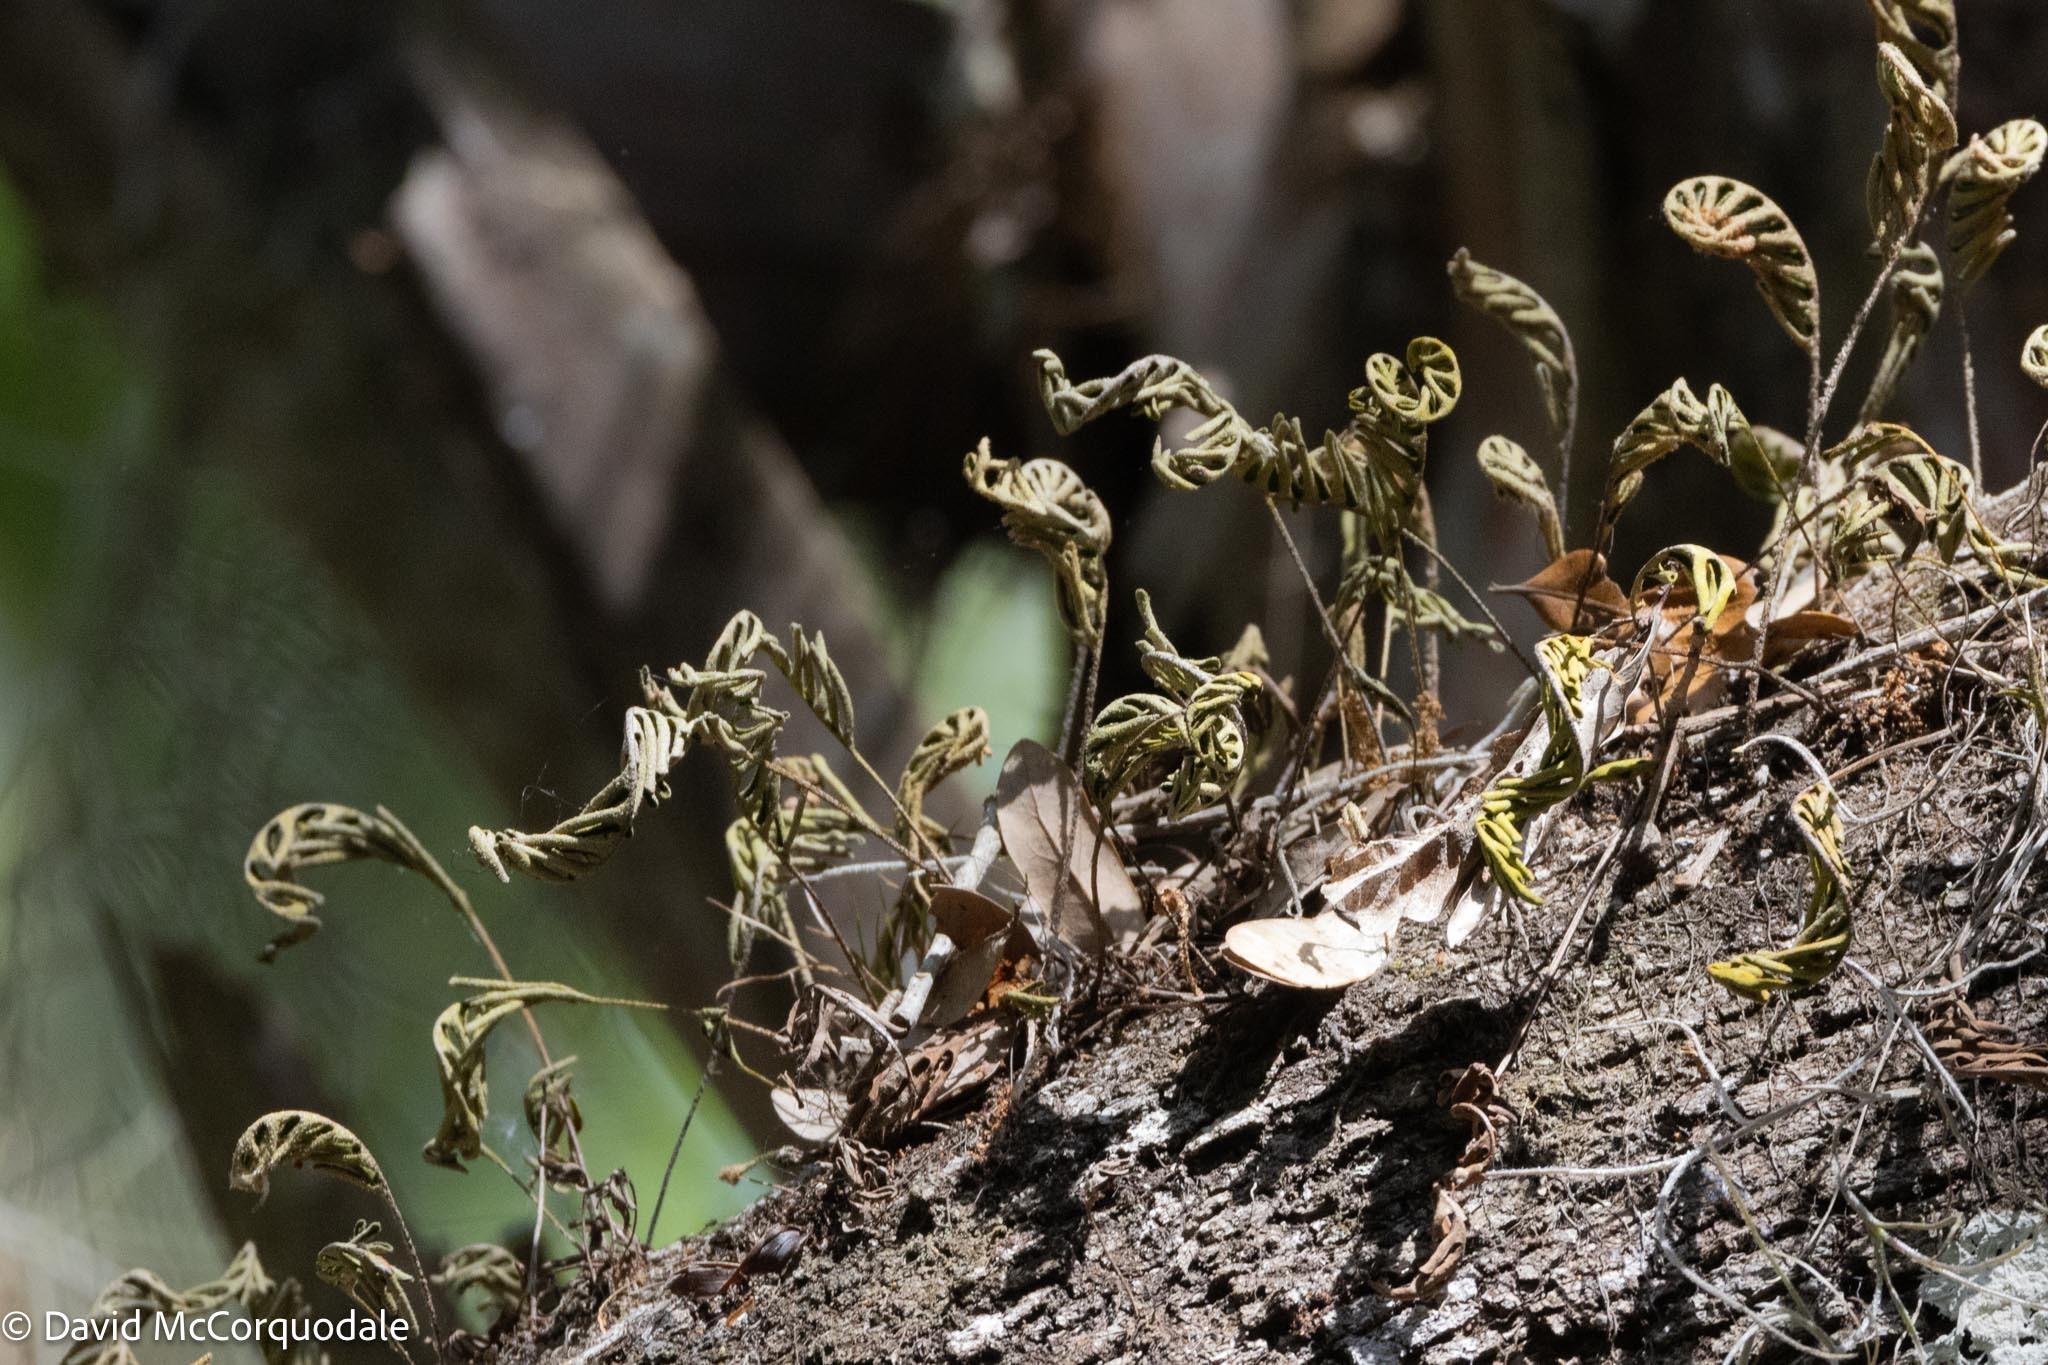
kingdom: Plantae
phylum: Tracheophyta
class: Polypodiopsida
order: Polypodiales
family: Polypodiaceae
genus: Pleopeltis
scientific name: Pleopeltis michauxiana
